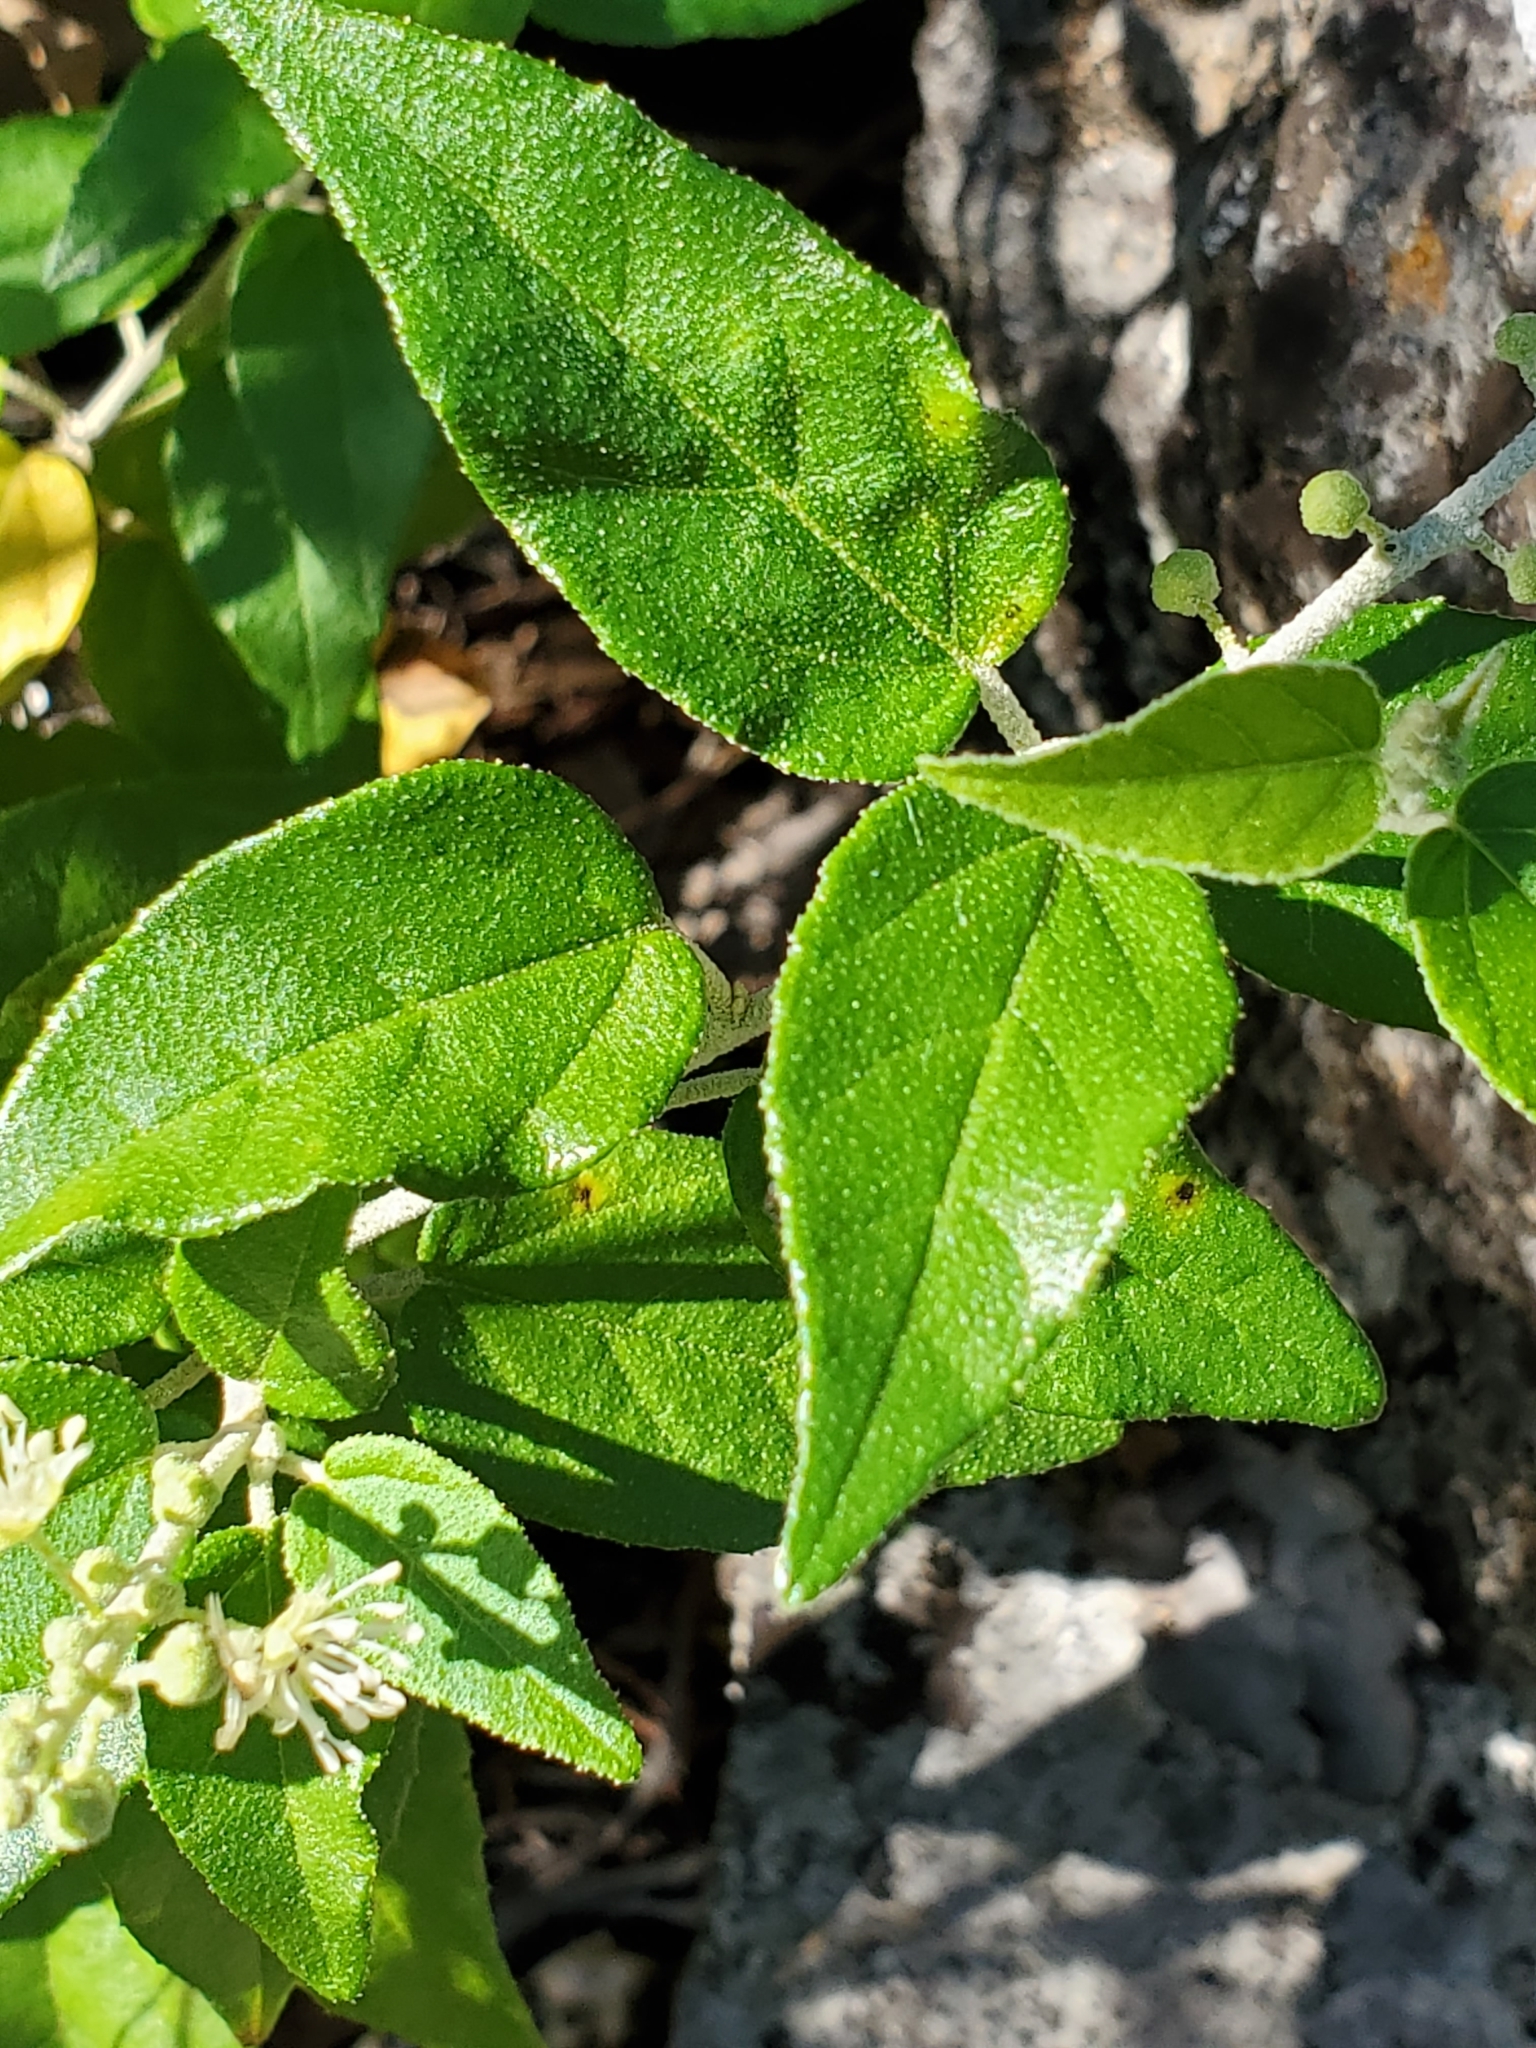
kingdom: Plantae
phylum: Tracheophyta
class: Magnoliopsida
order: Malpighiales
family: Euphorbiaceae
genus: Croton
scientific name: Croton fruticulosus
